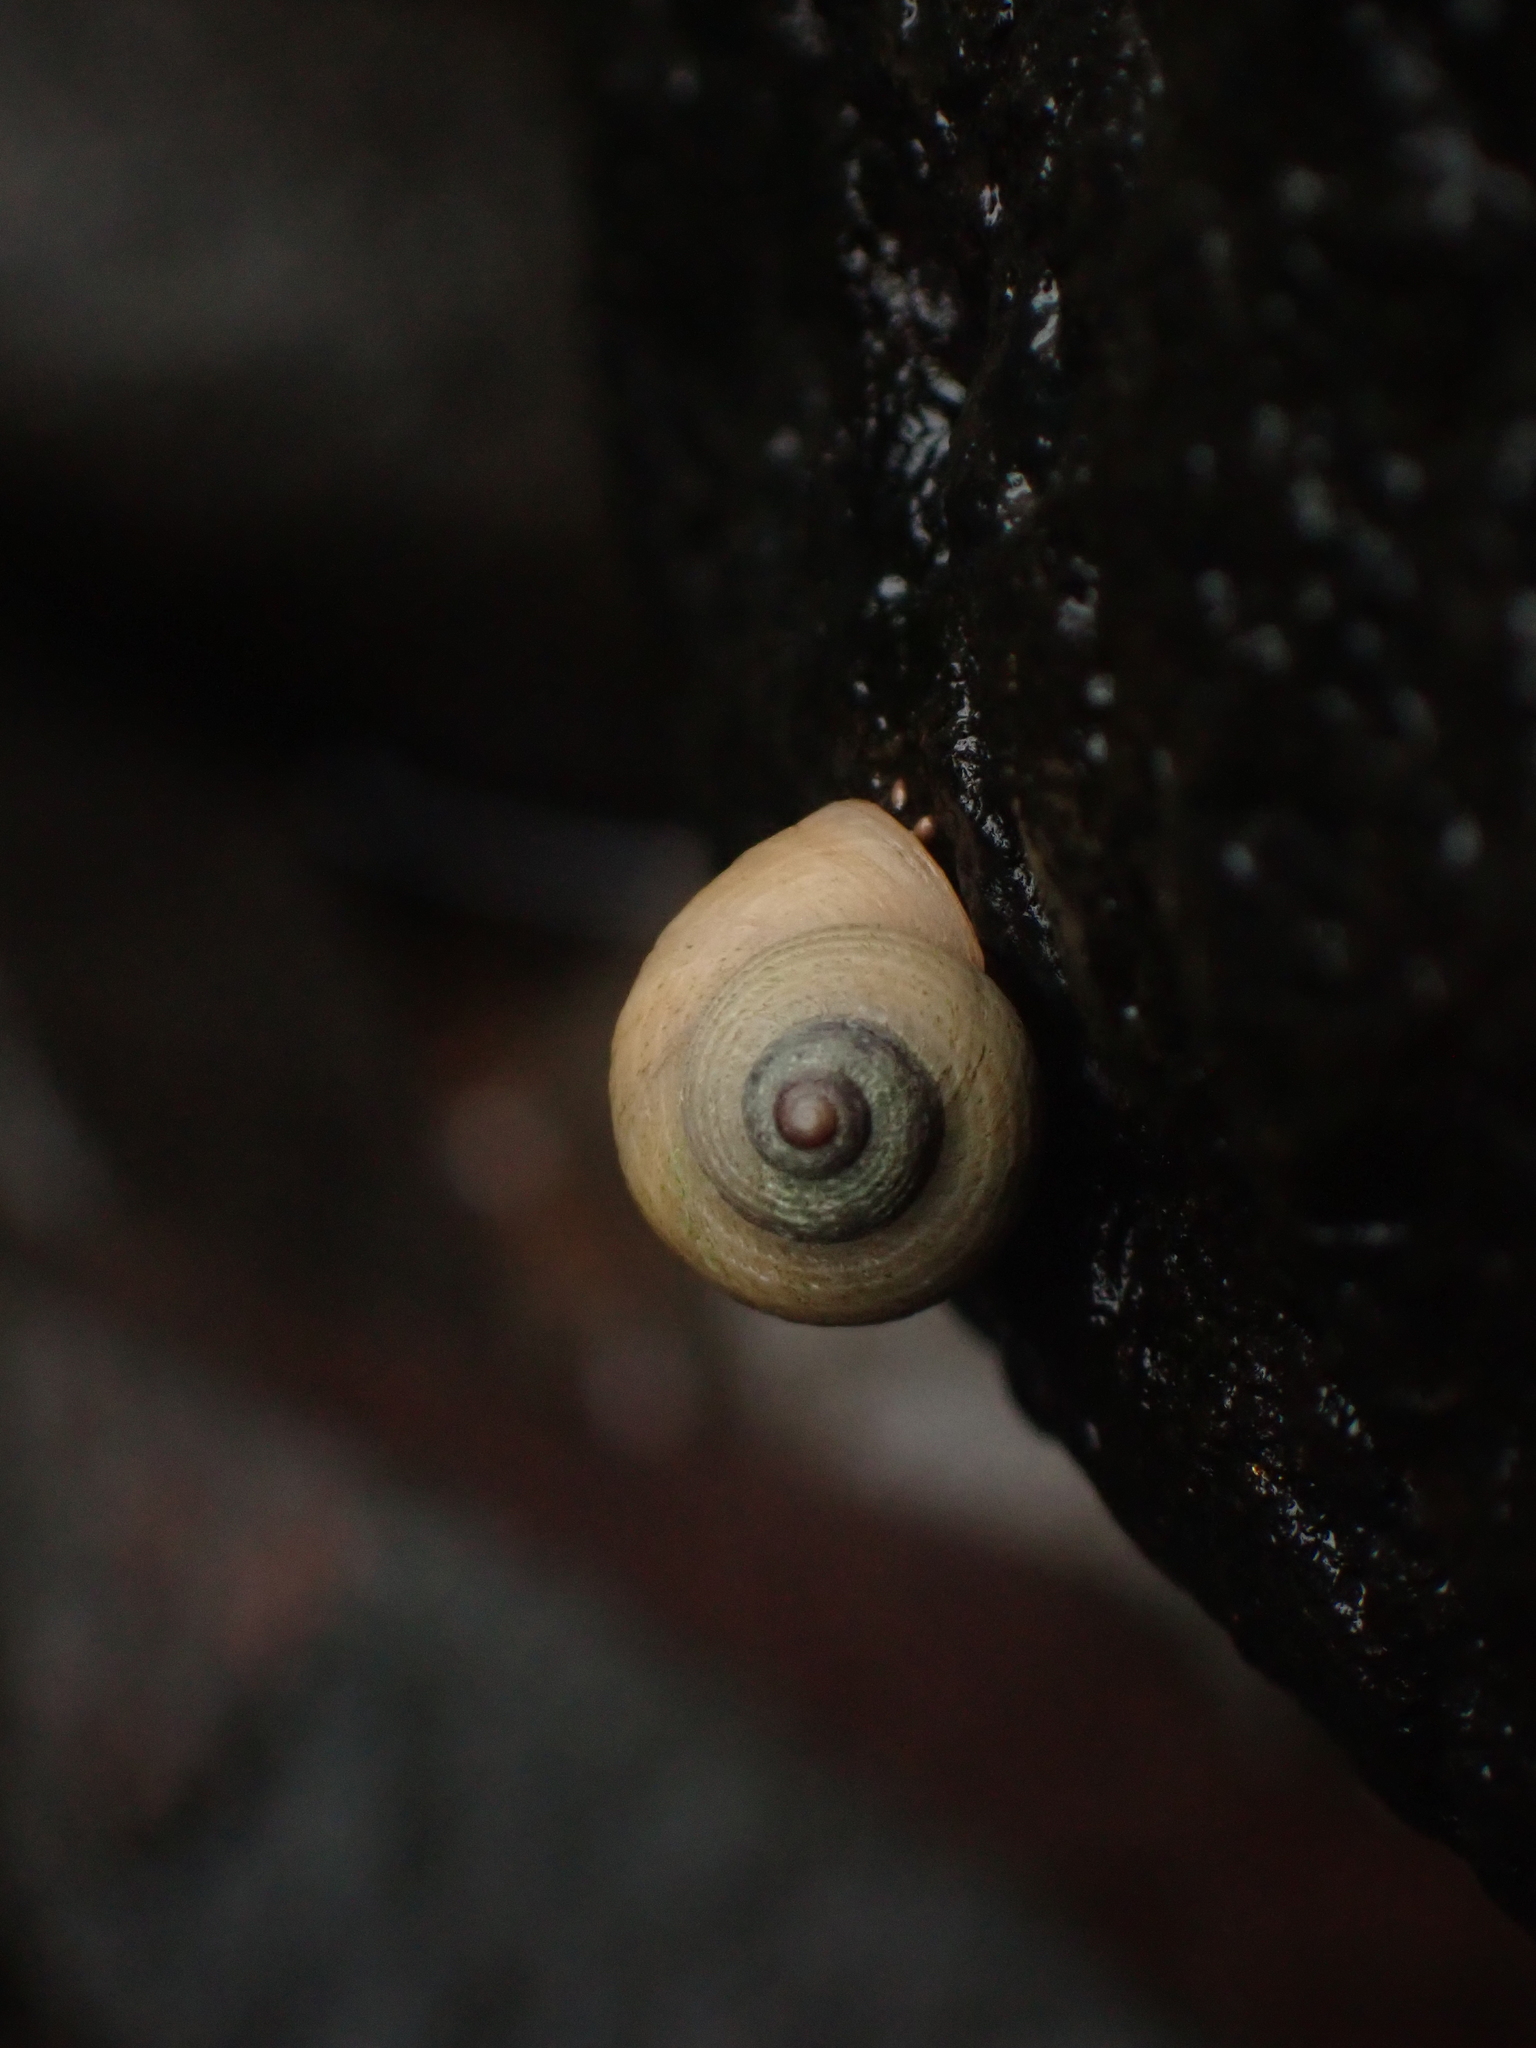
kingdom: Animalia
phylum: Mollusca
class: Gastropoda
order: Littorinimorpha
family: Littorinidae
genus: Littorina
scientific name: Littorina saxatilis
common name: Black-lined periwinkle
